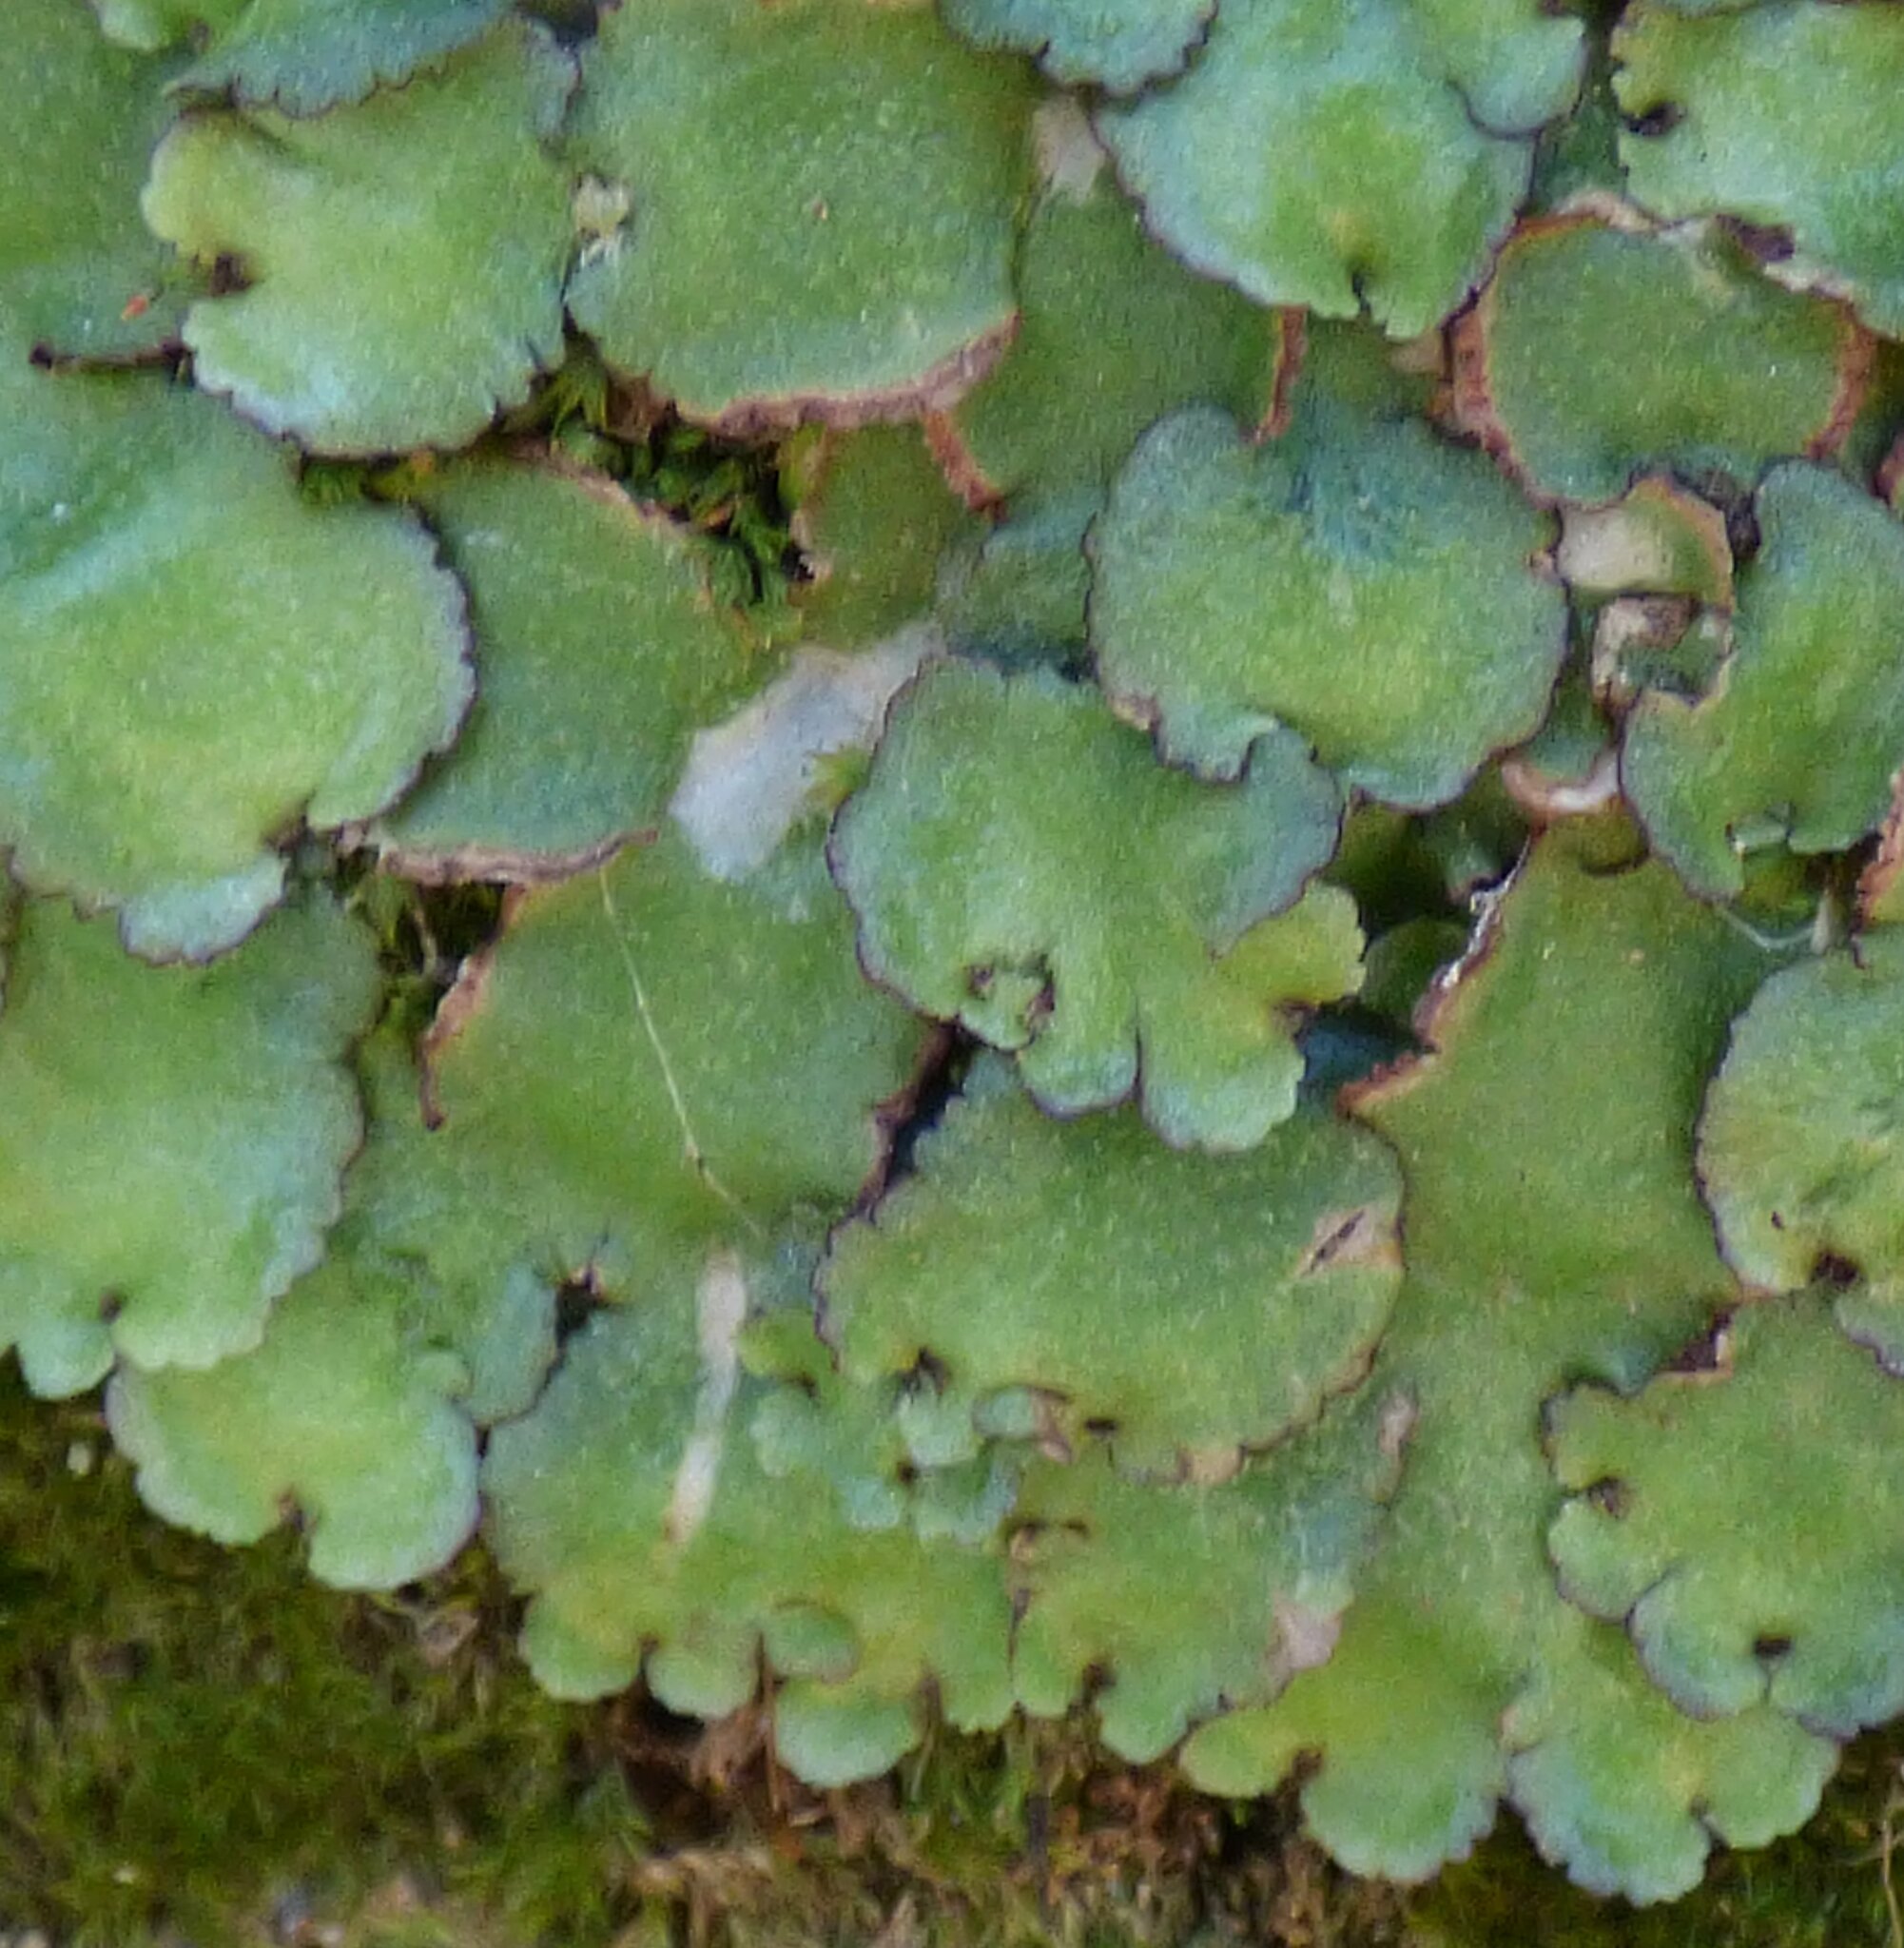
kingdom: Plantae
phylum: Marchantiophyta
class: Marchantiopsida
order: Marchantiales
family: Aytoniaceae
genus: Reboulia
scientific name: Reboulia hemisphaerica
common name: Purple-margined liverwort
